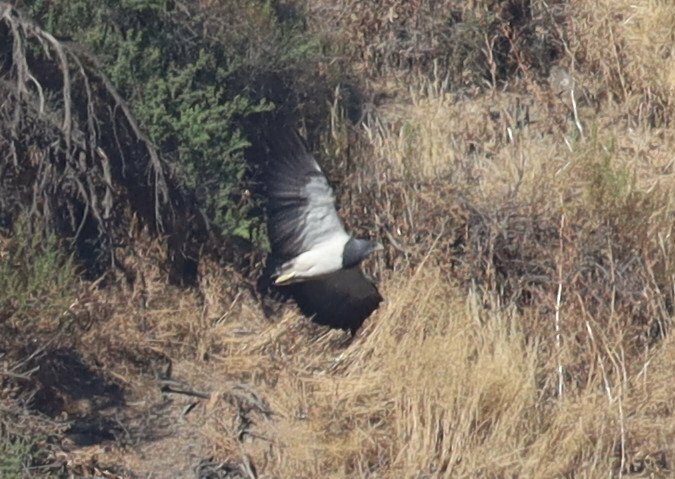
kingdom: Animalia
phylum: Chordata
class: Aves
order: Accipitriformes
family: Accipitridae
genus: Geranoaetus
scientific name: Geranoaetus melanoleucus
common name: Black-chested buzzard-eagle
